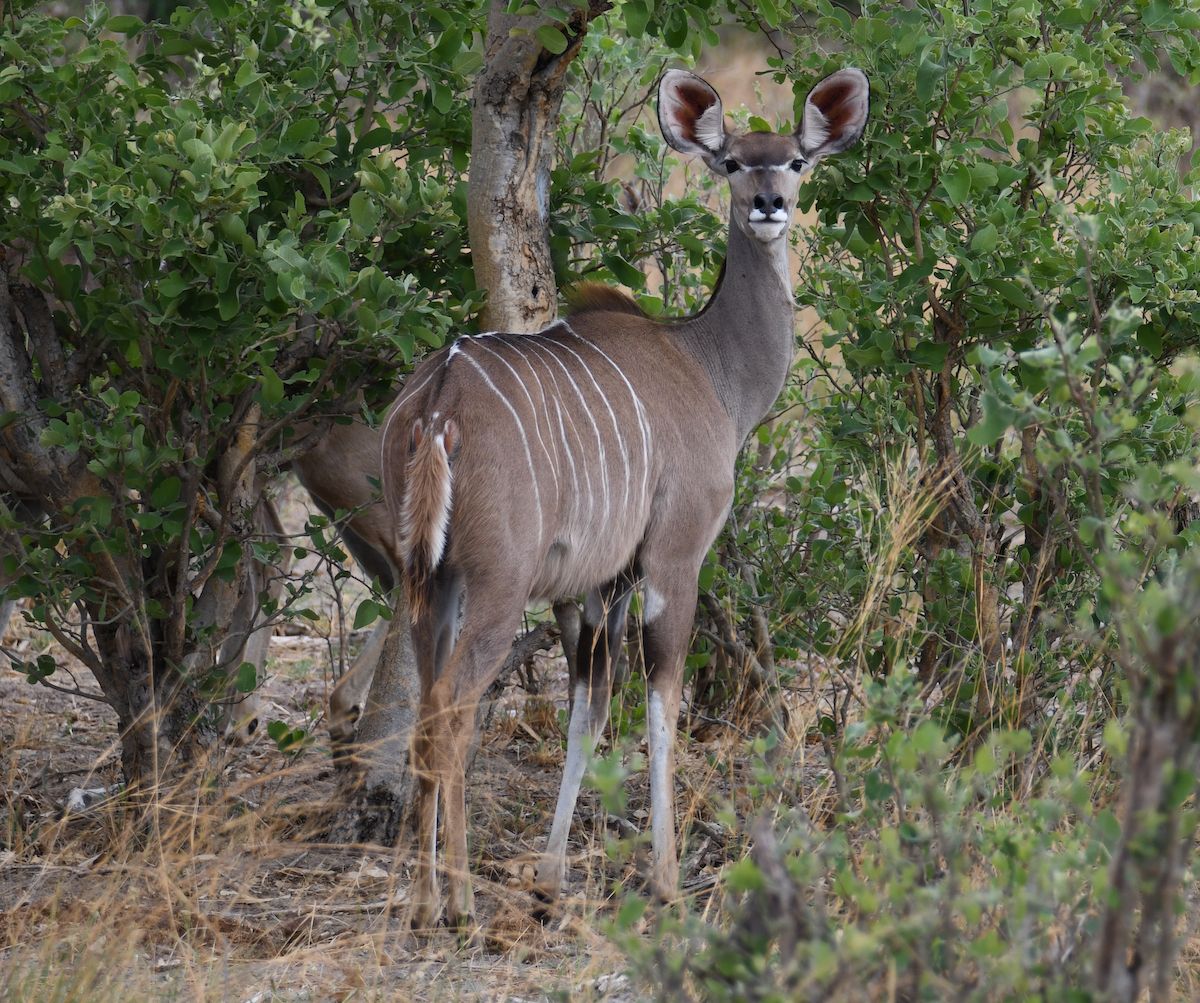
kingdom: Animalia
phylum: Chordata
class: Mammalia
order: Artiodactyla
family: Bovidae
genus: Tragelaphus
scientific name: Tragelaphus strepsiceros
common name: Greater kudu
